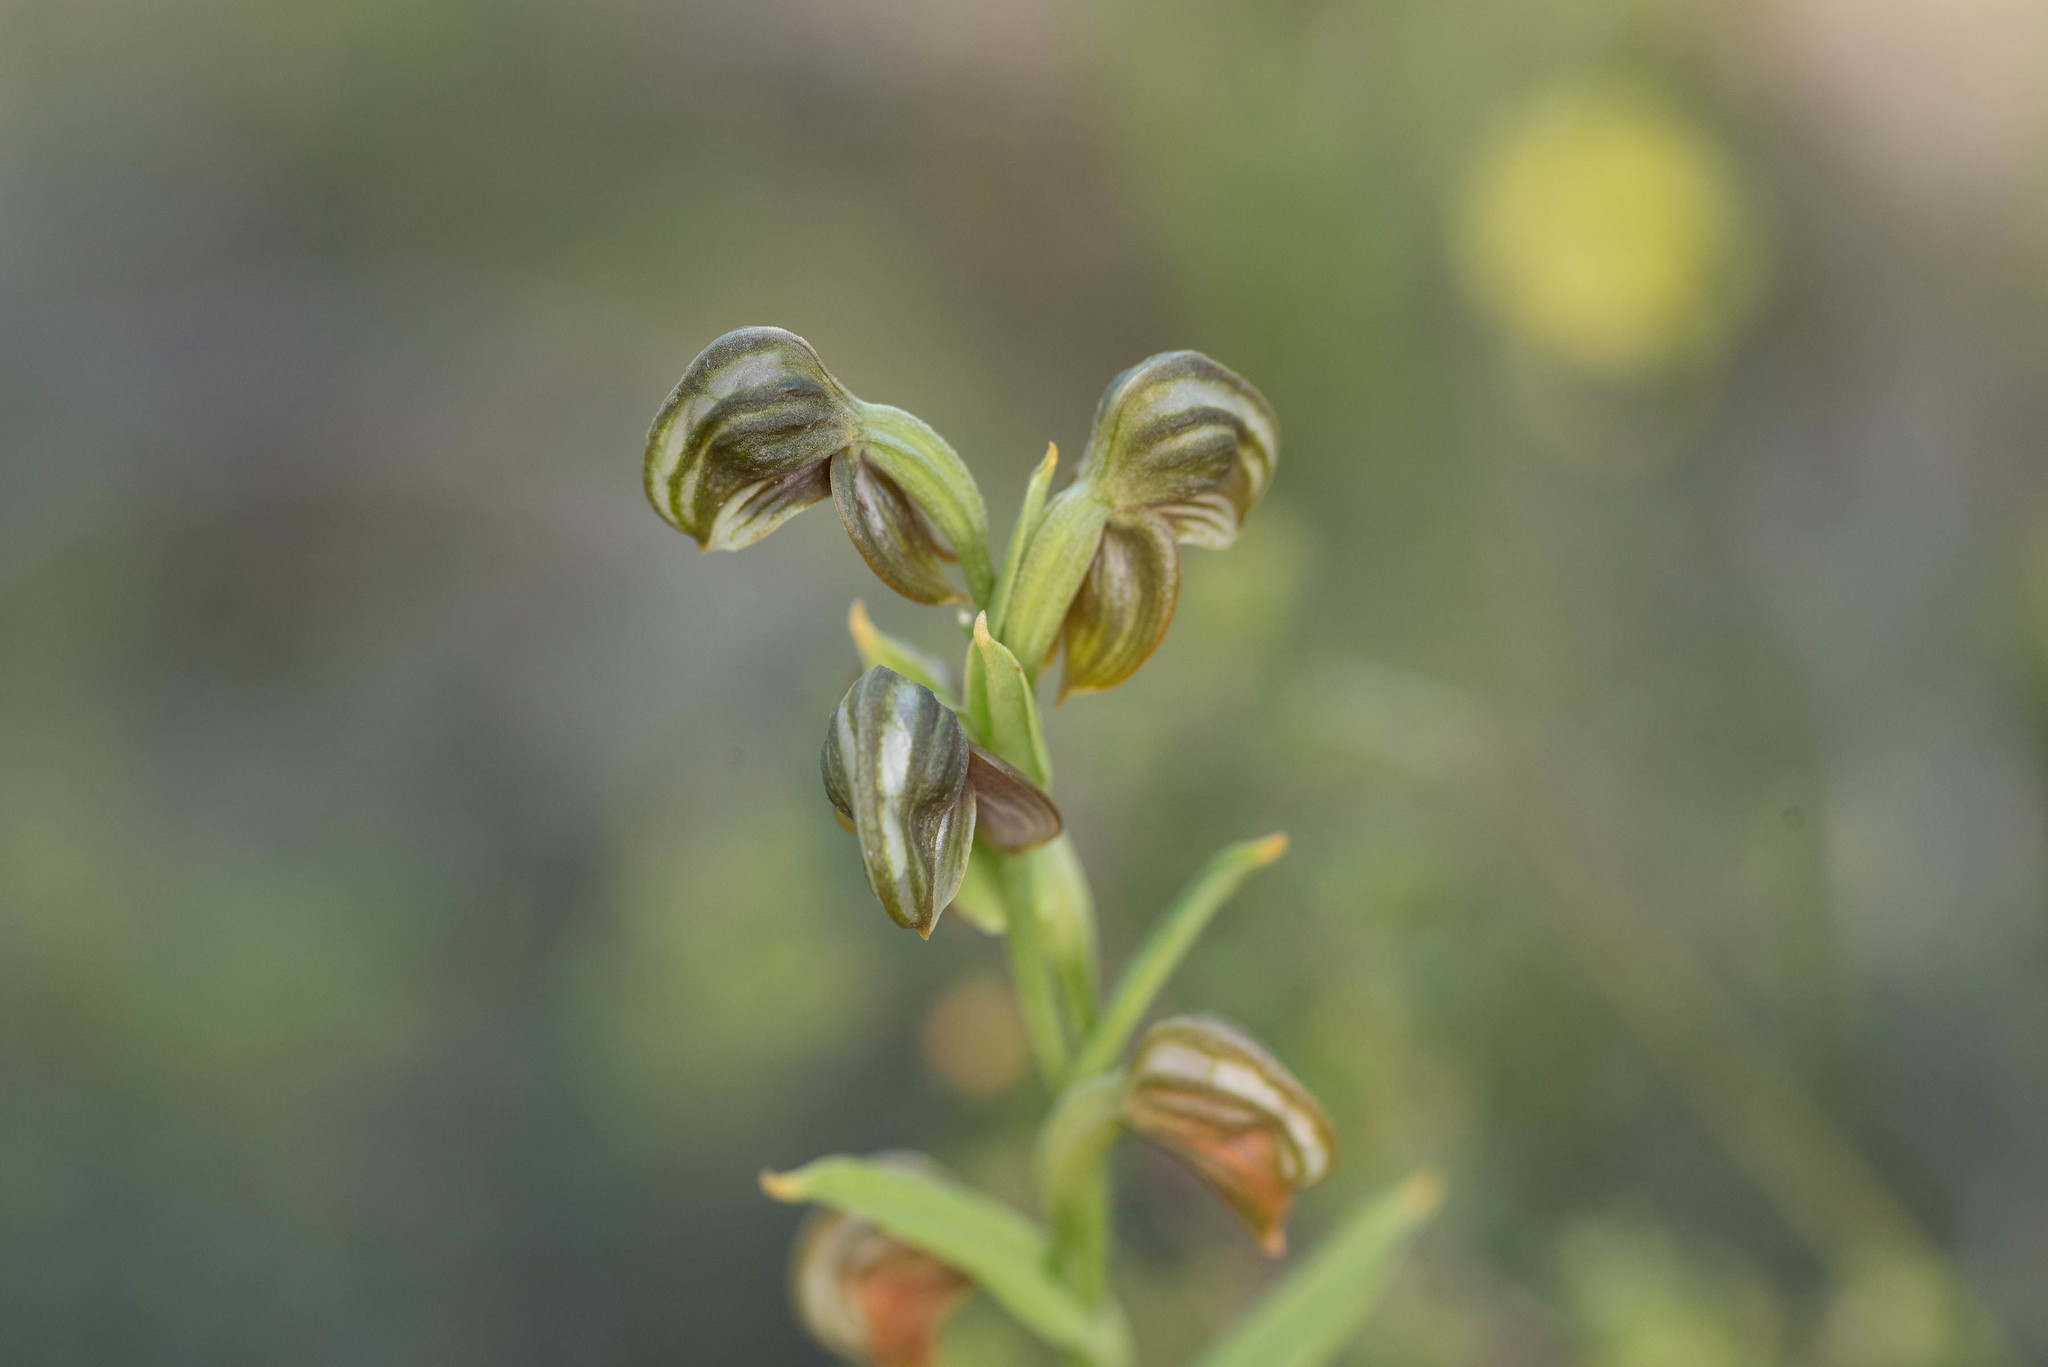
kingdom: Plantae
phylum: Tracheophyta
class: Liliopsida
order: Asparagales
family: Orchidaceae
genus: Pterostylis
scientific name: Pterostylis sanguinea
